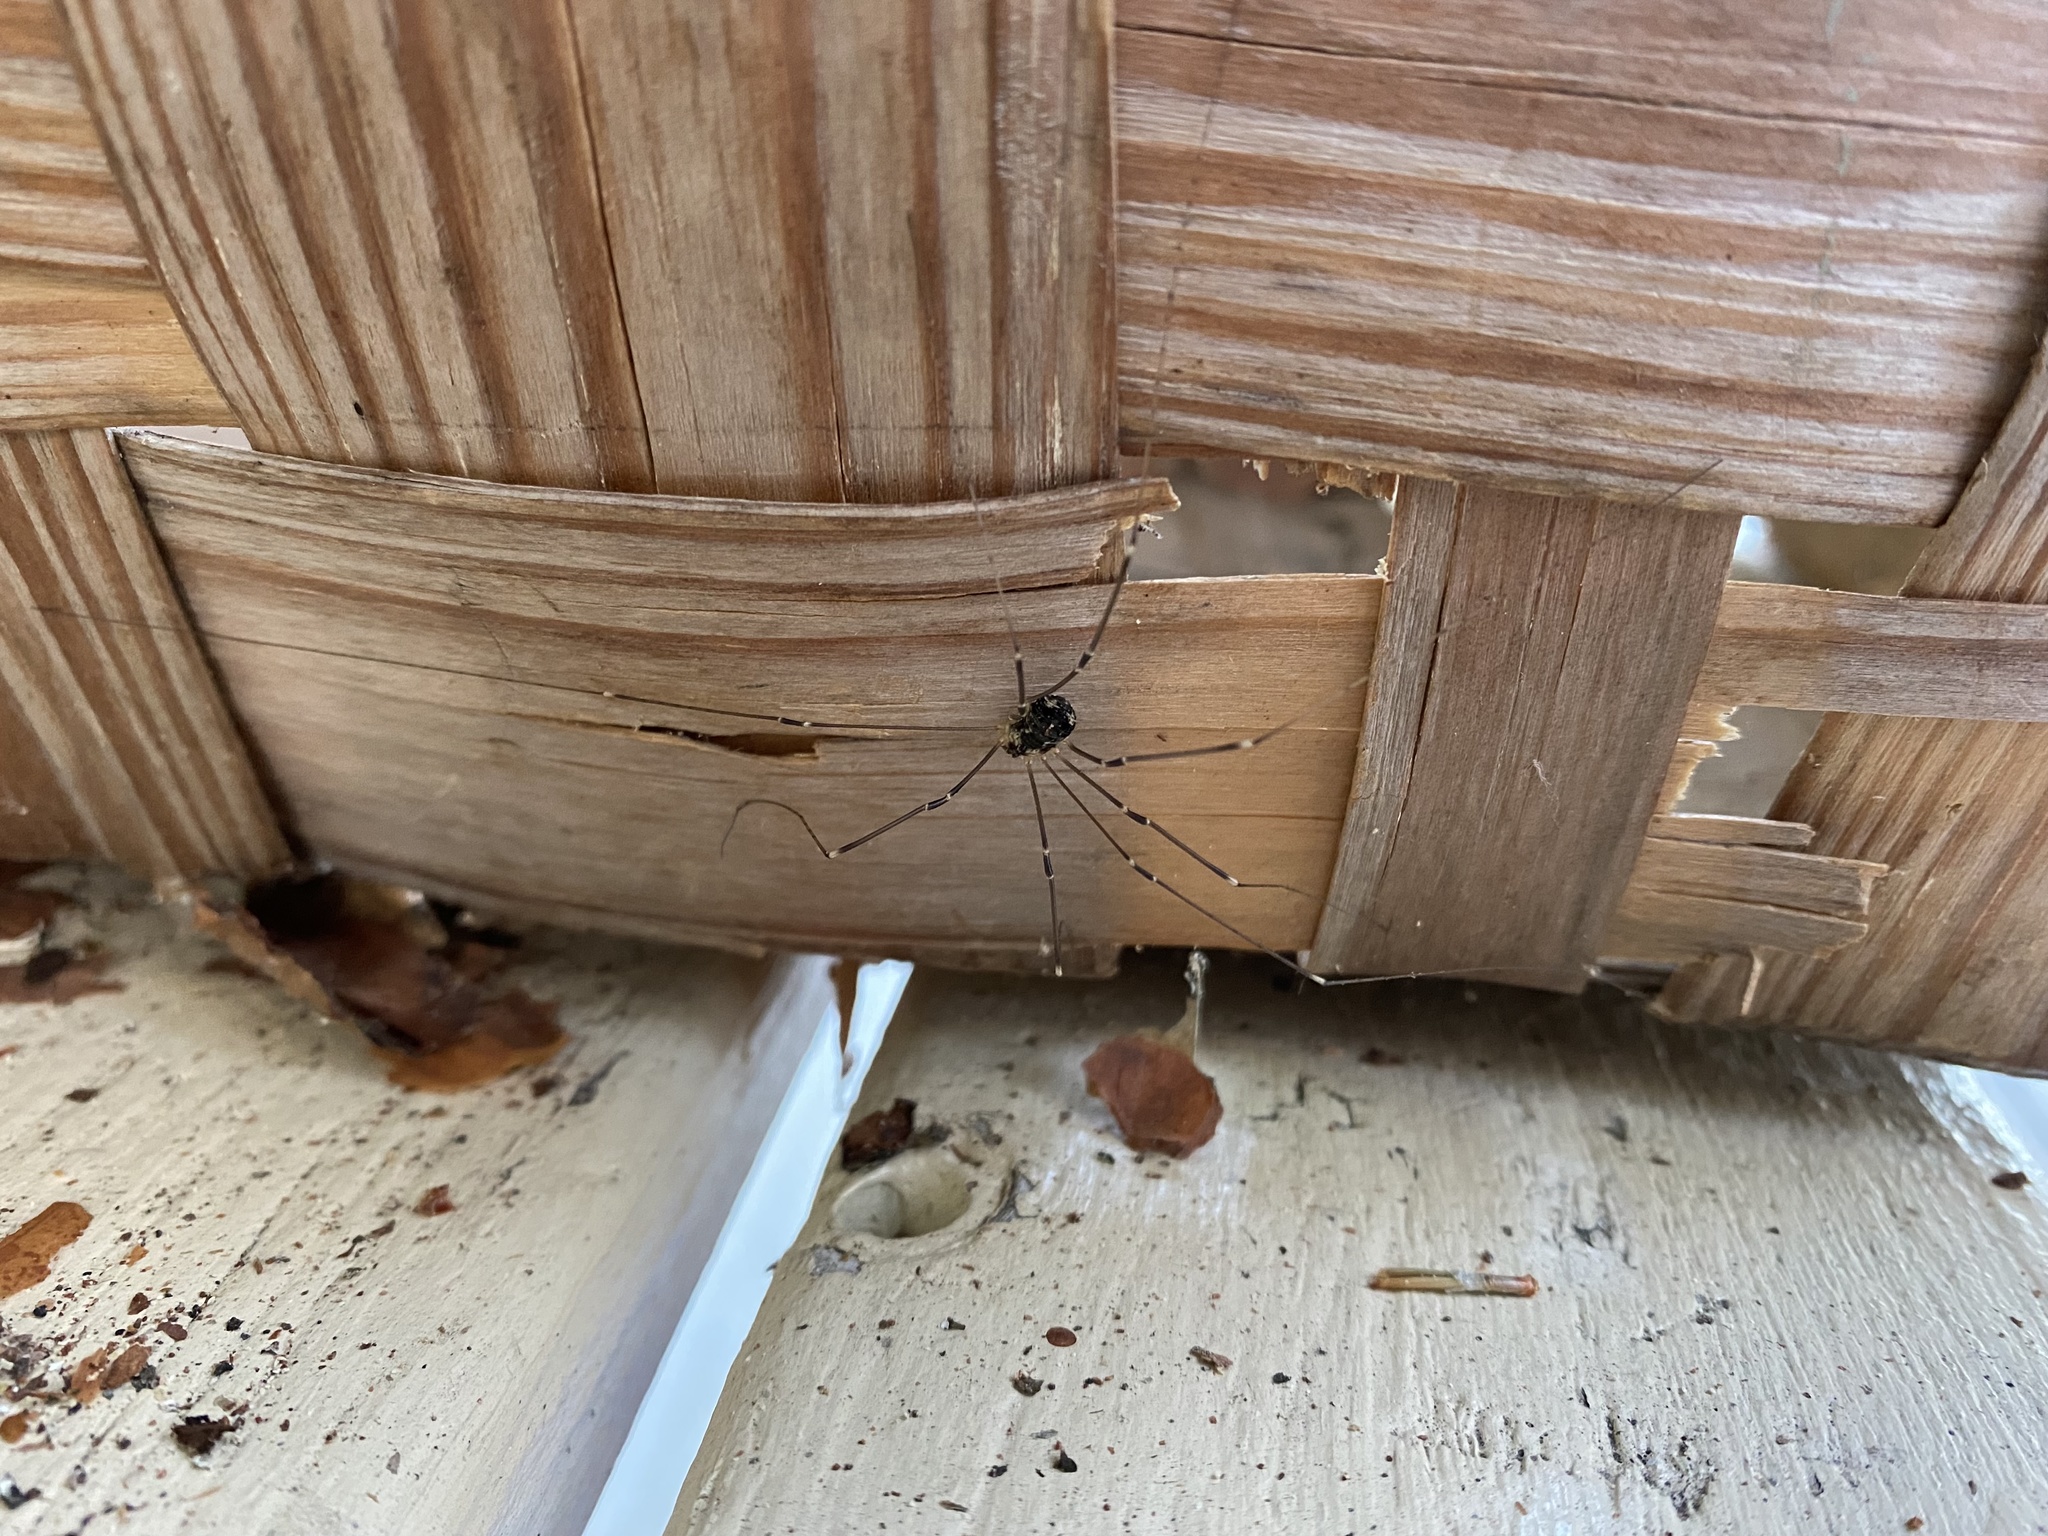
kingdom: Animalia
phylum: Arthropoda
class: Arachnida
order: Opiliones
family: Sclerosomatidae
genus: Leiobunum
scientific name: Leiobunum gracile
